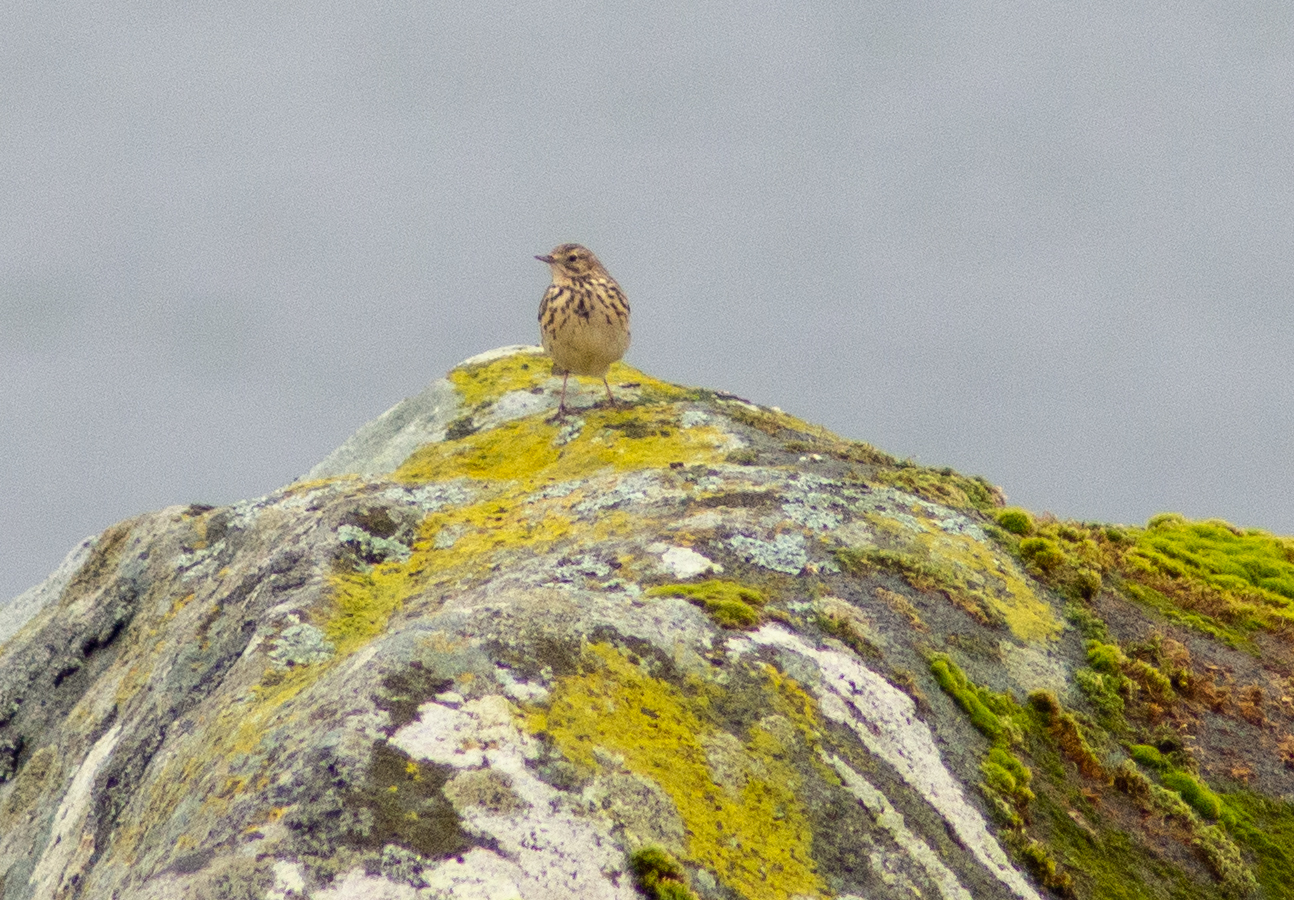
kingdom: Animalia
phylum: Chordata
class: Aves
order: Passeriformes
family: Motacillidae
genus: Anthus
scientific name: Anthus pratensis
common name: Meadow pipit
